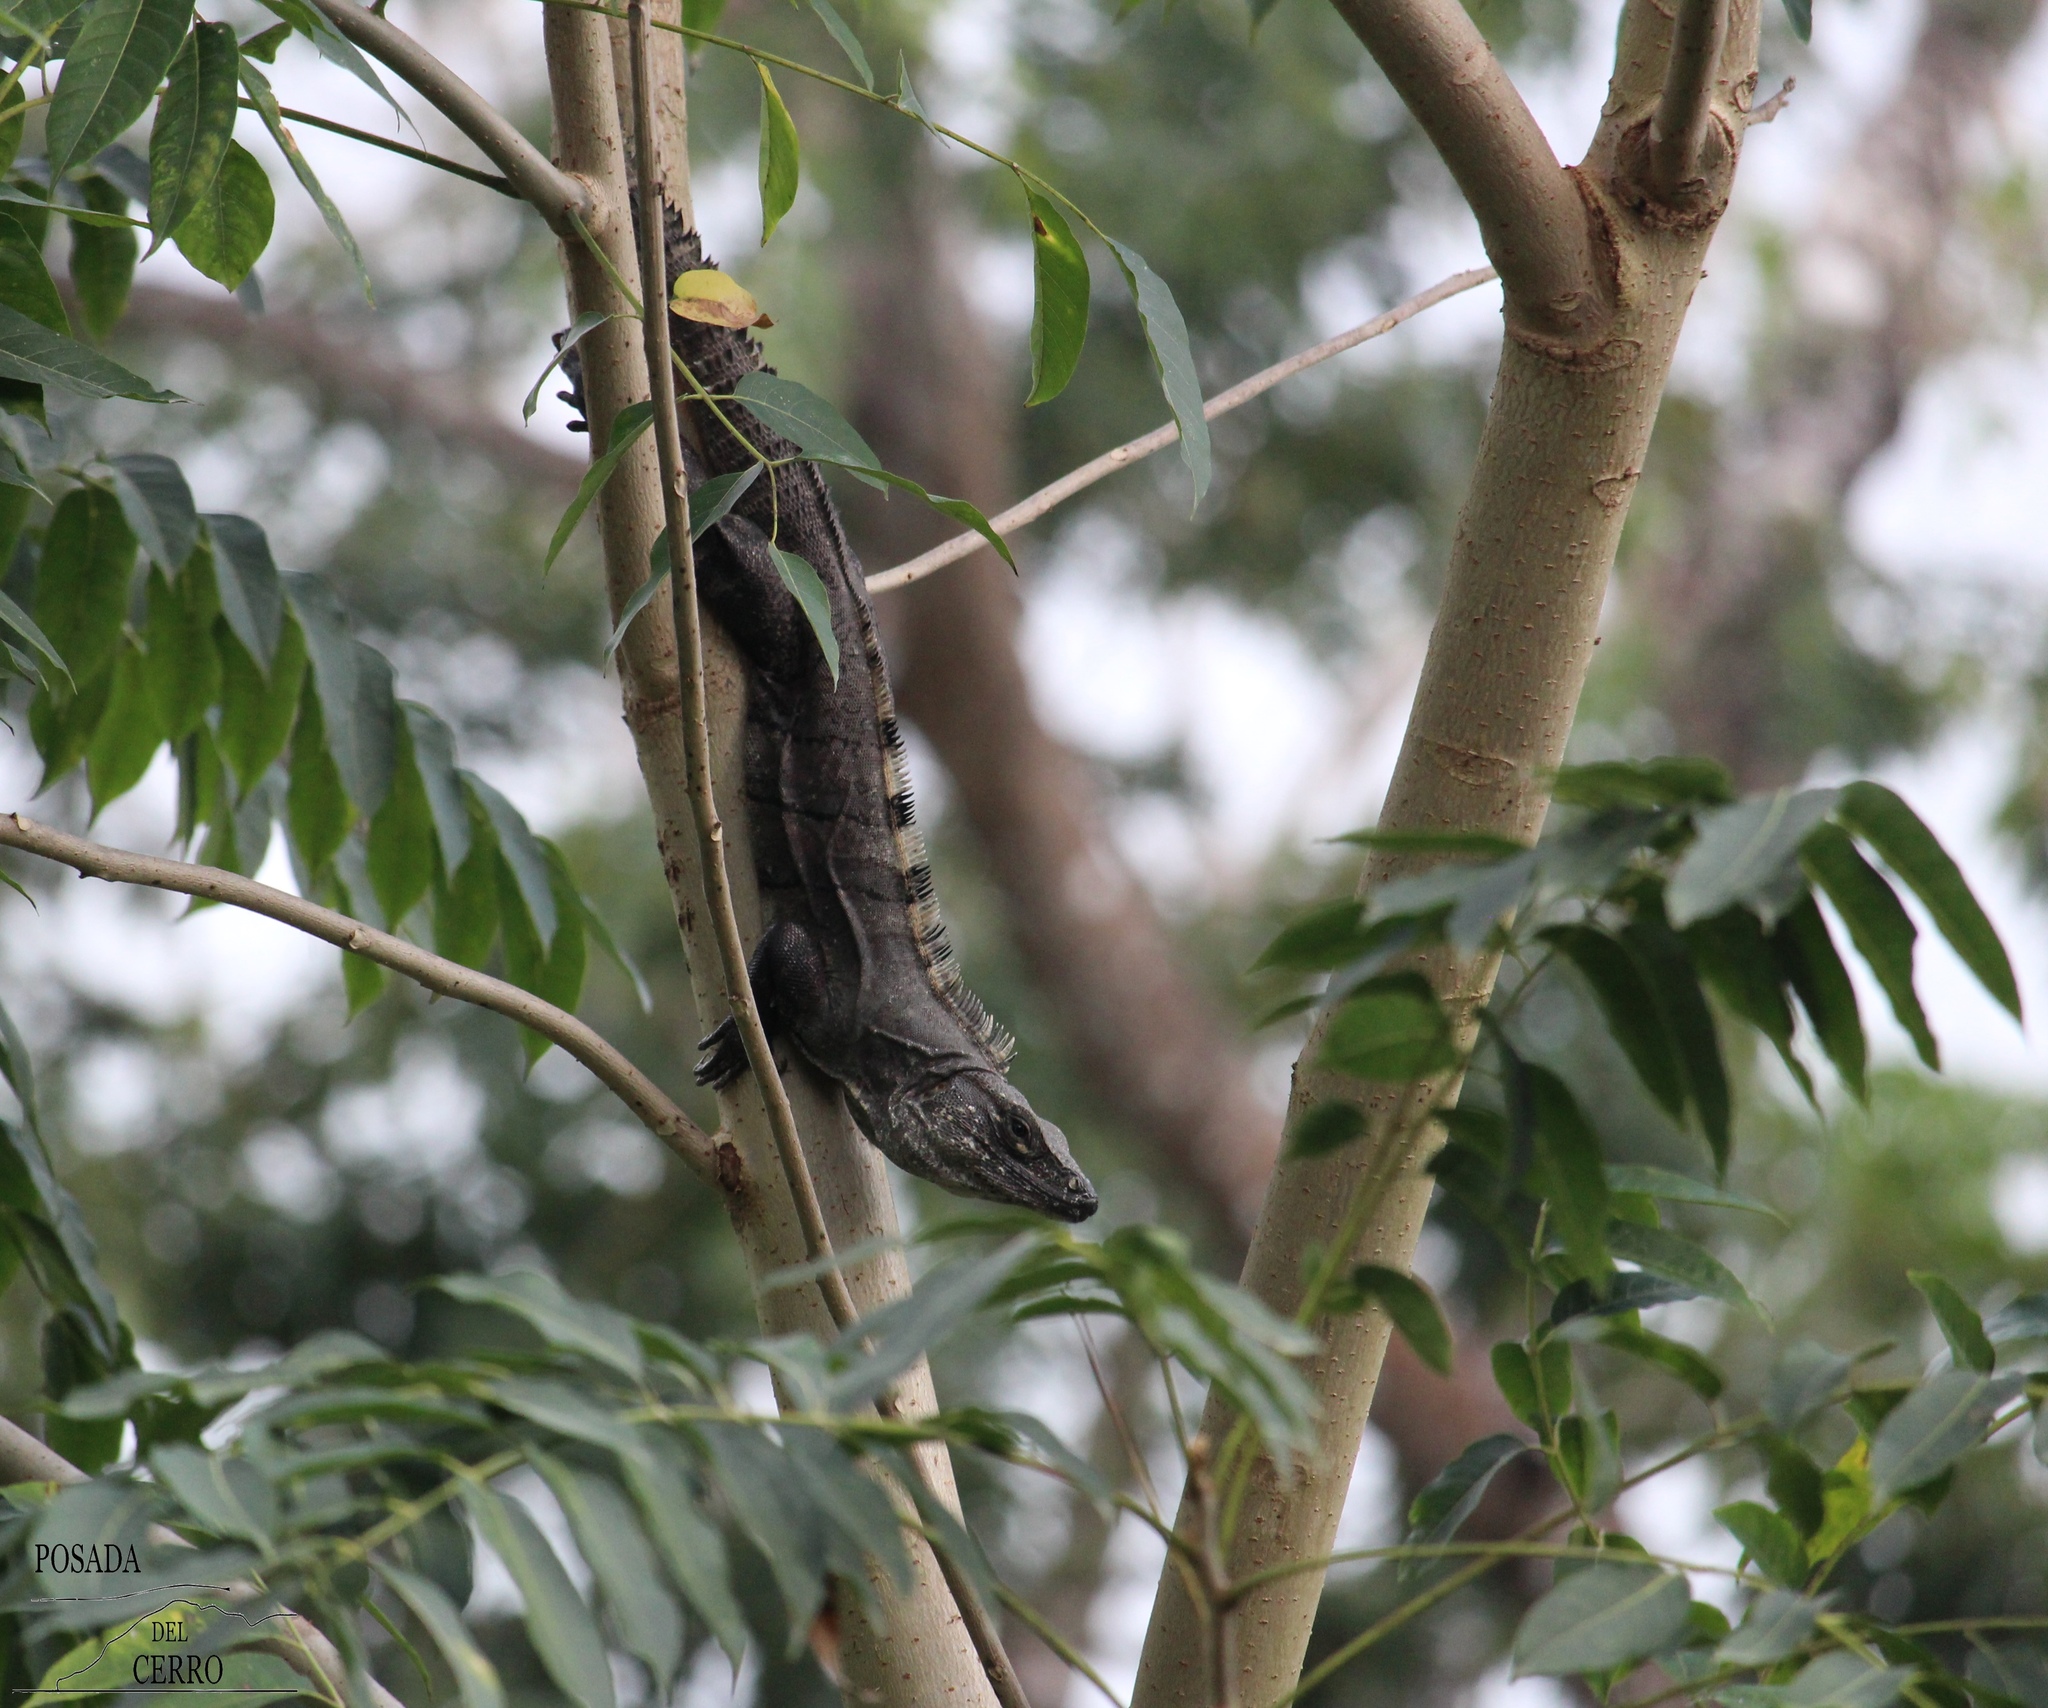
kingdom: Animalia
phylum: Chordata
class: Squamata
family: Iguanidae
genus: Ctenosaura
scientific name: Ctenosaura similis
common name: Black spiny-tailed iguana
